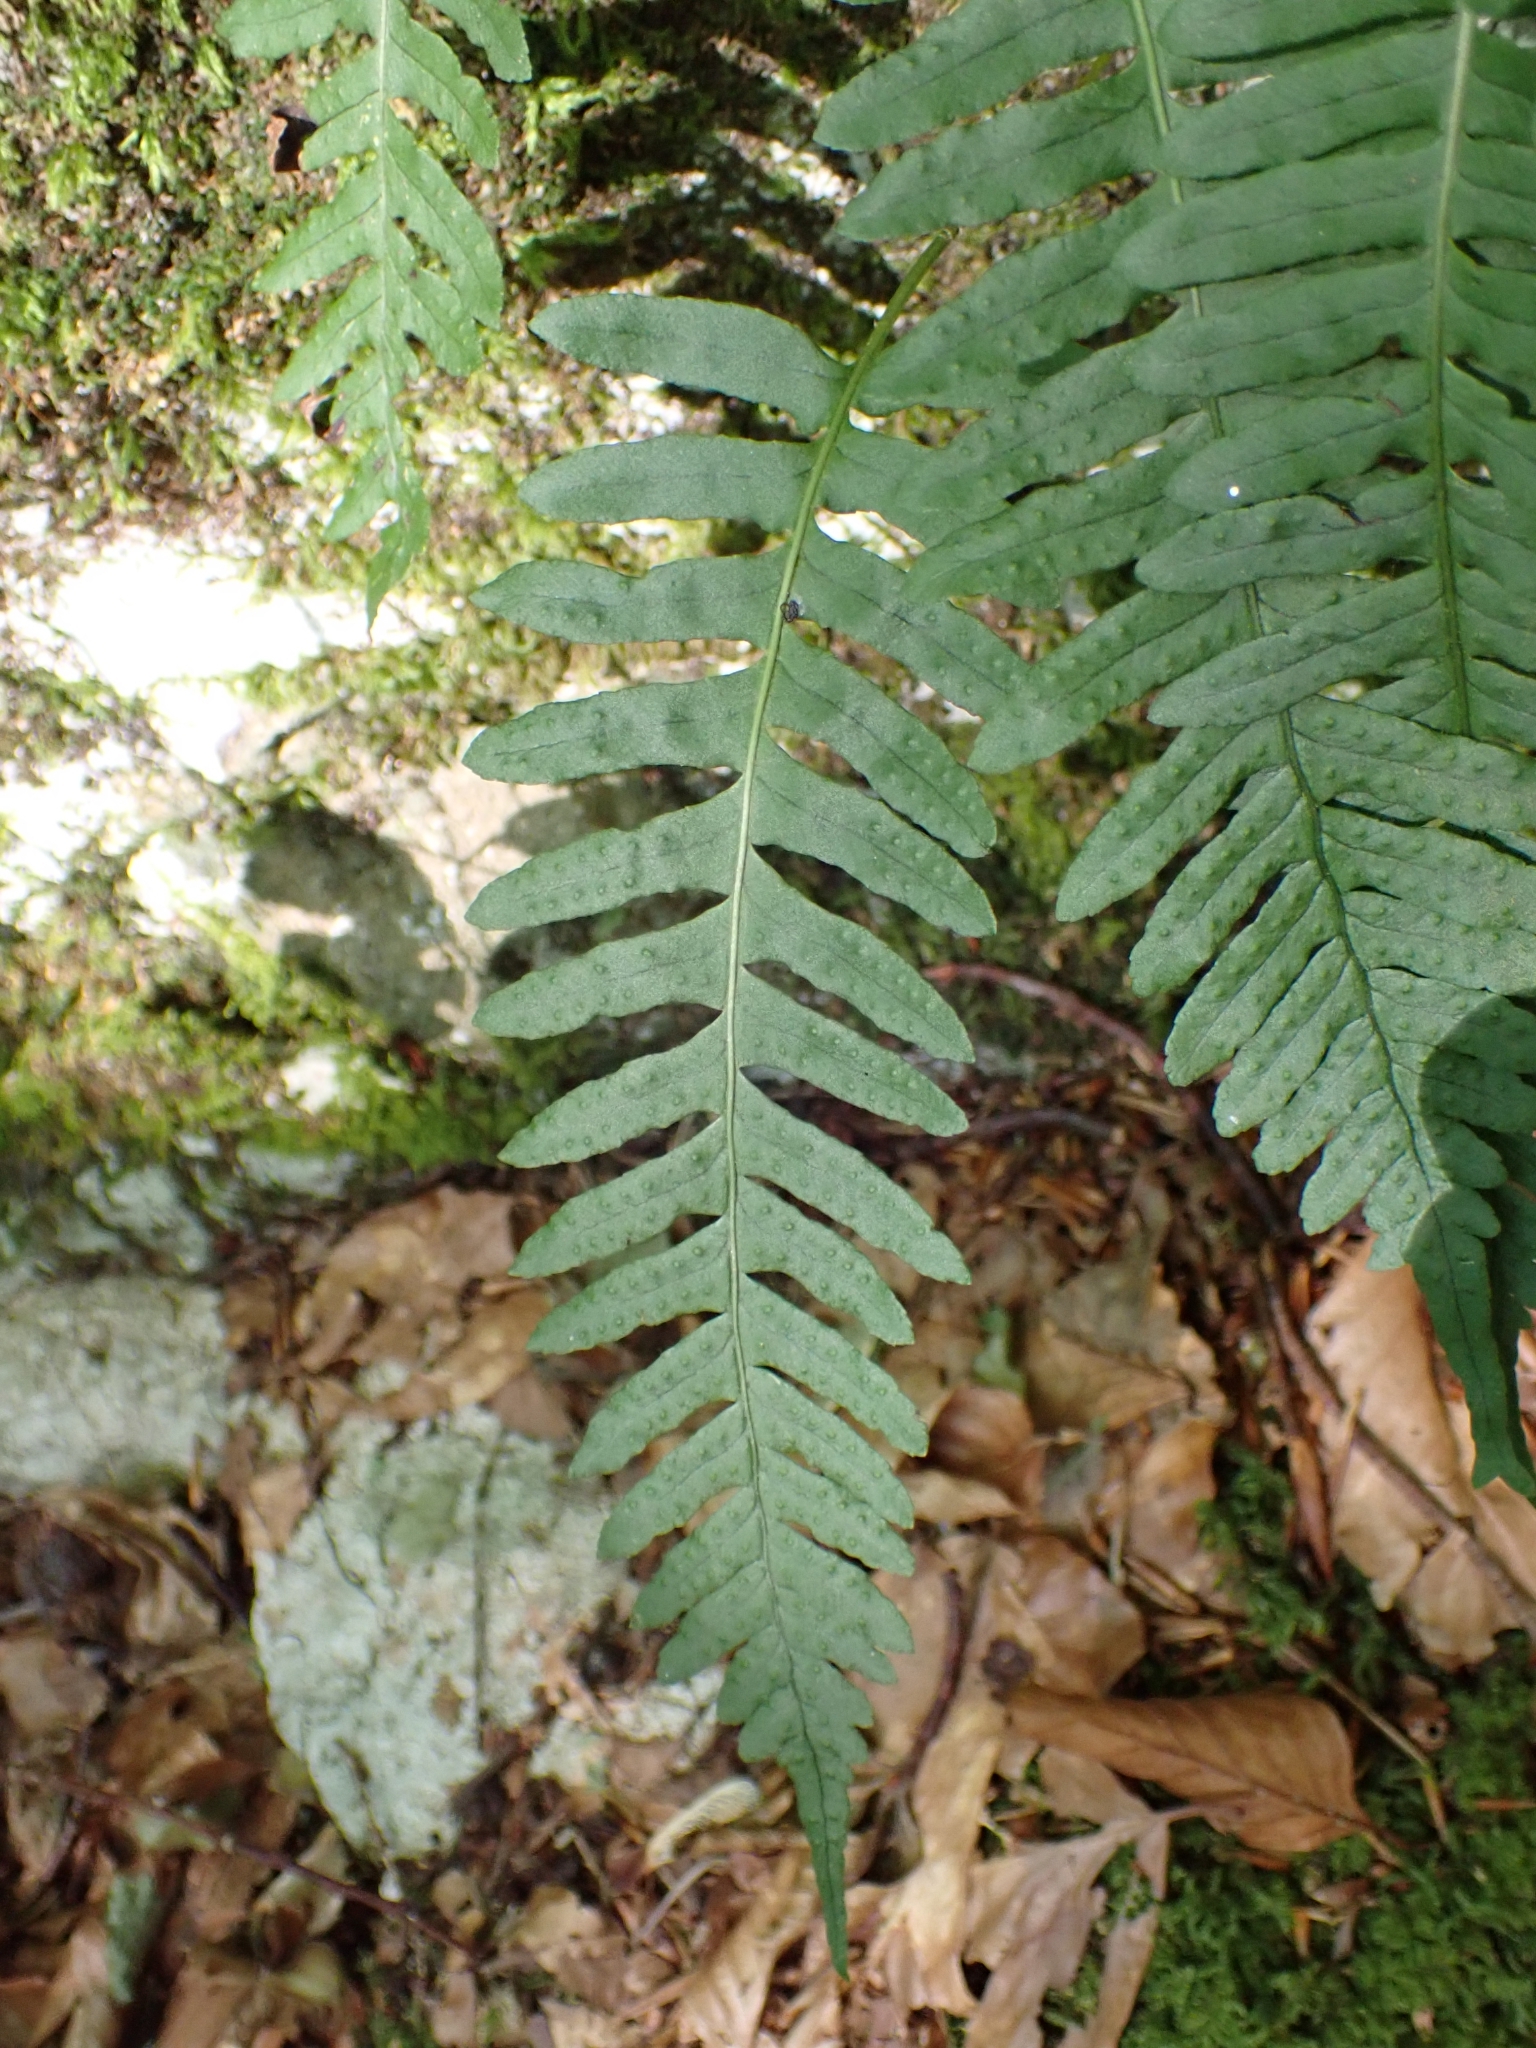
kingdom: Plantae
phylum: Tracheophyta
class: Polypodiopsida
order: Polypodiales
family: Polypodiaceae
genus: Polypodium
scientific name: Polypodium vulgare
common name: Common polypody
